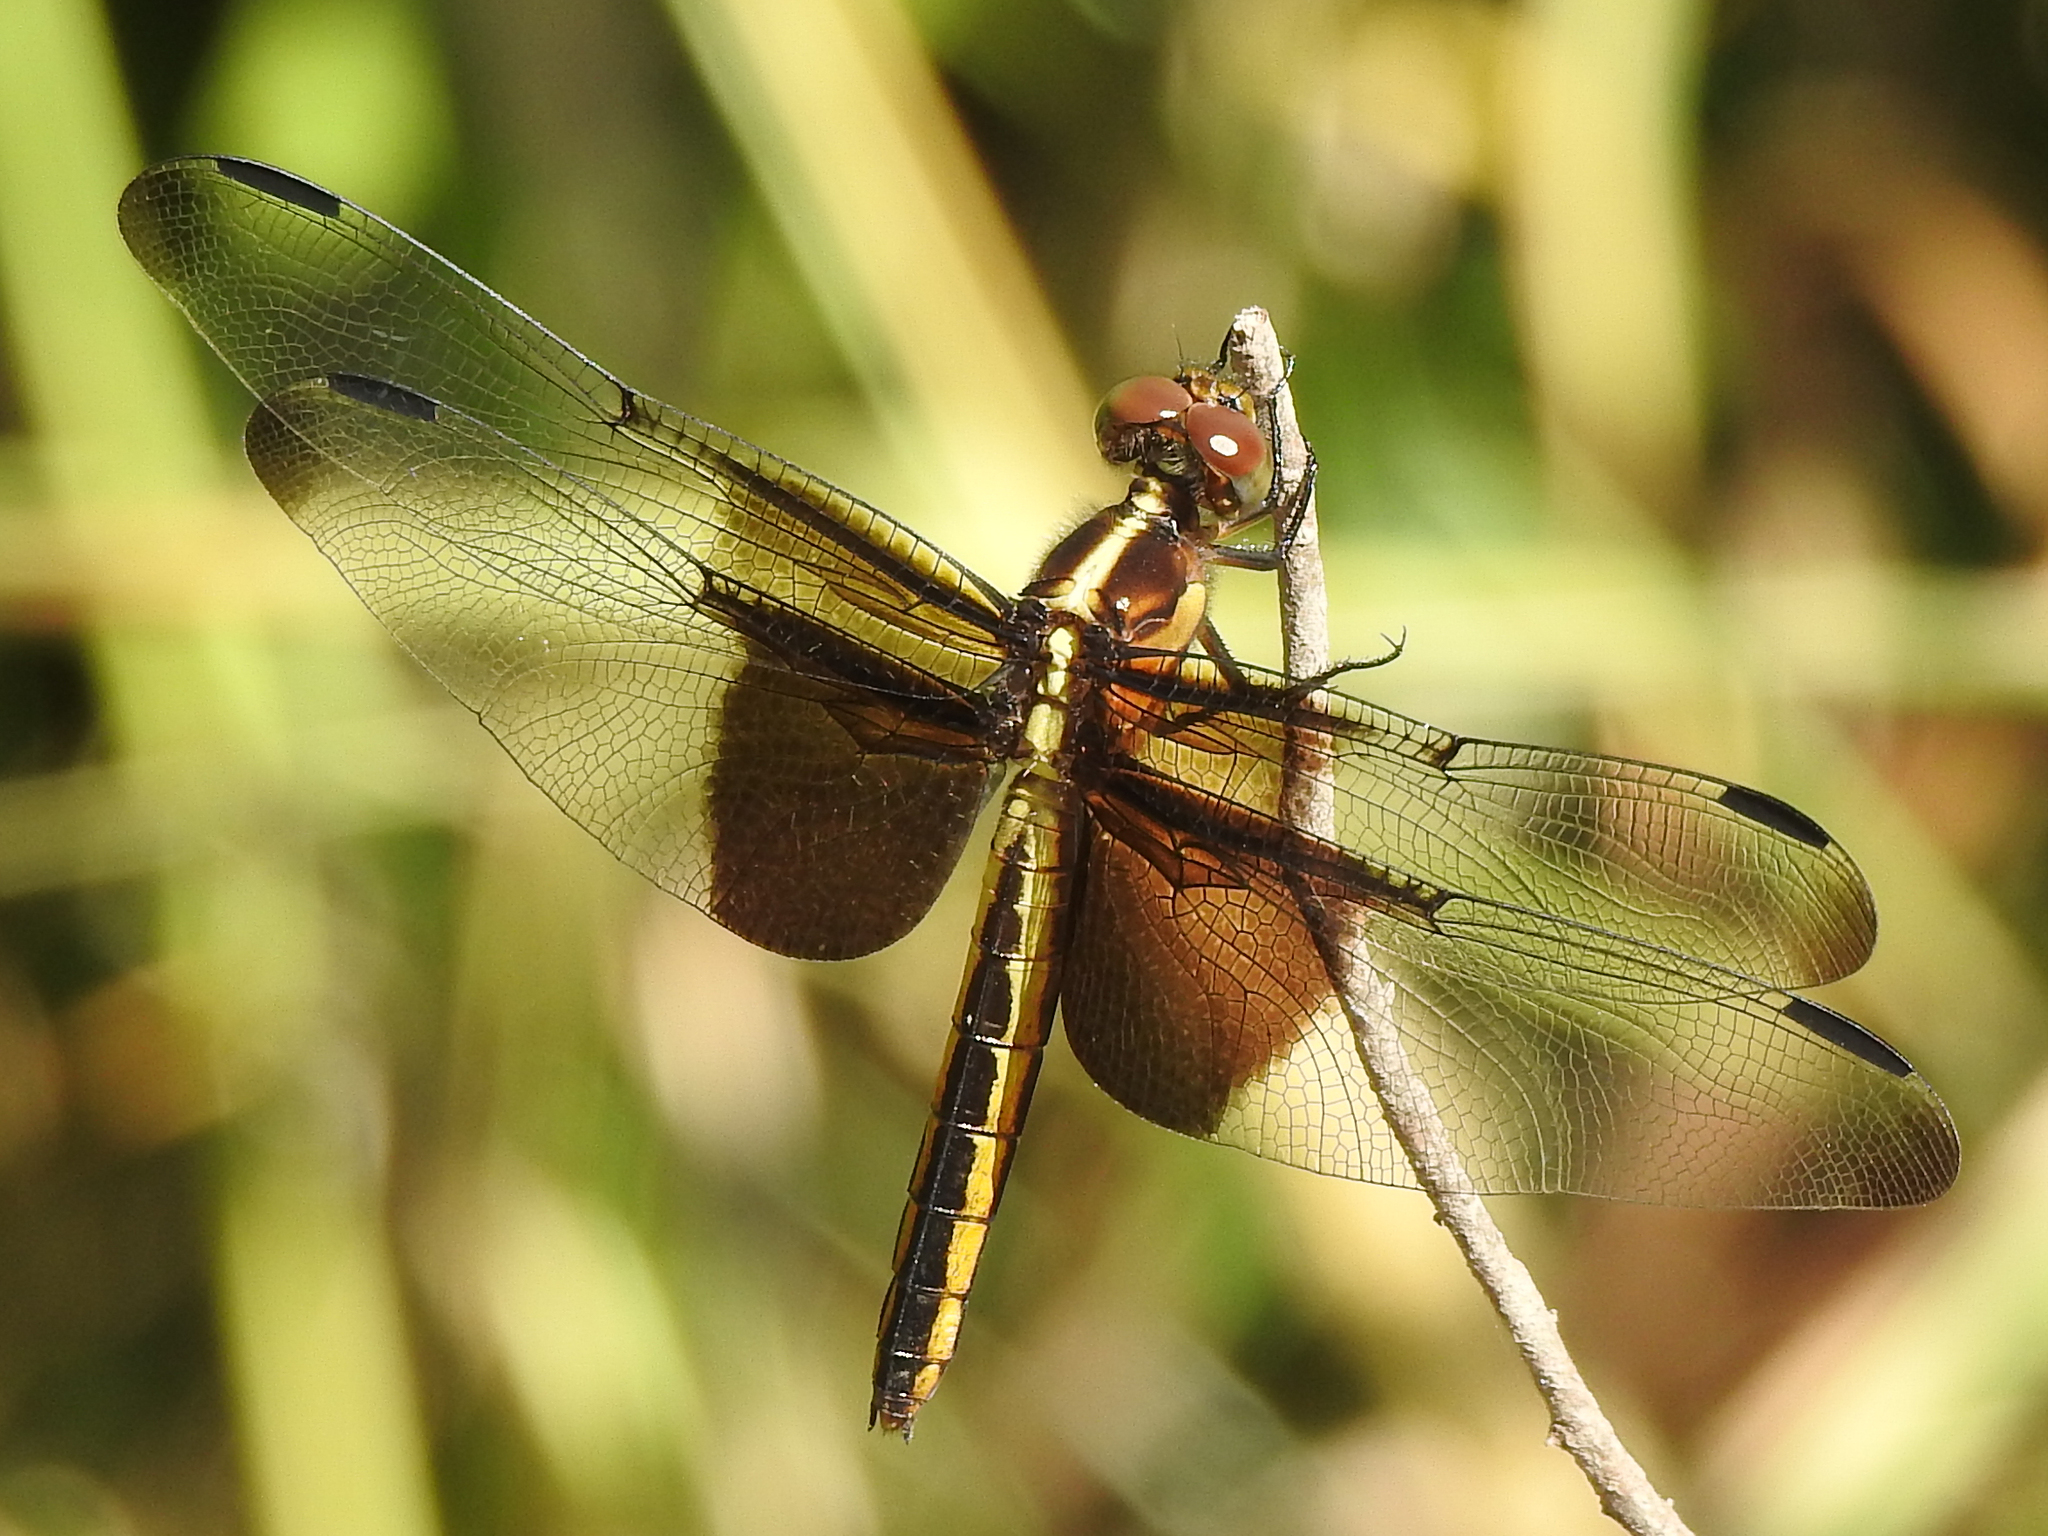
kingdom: Animalia
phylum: Arthropoda
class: Insecta
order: Odonata
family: Libellulidae
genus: Libellula
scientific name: Libellula luctuosa
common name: Widow skimmer
